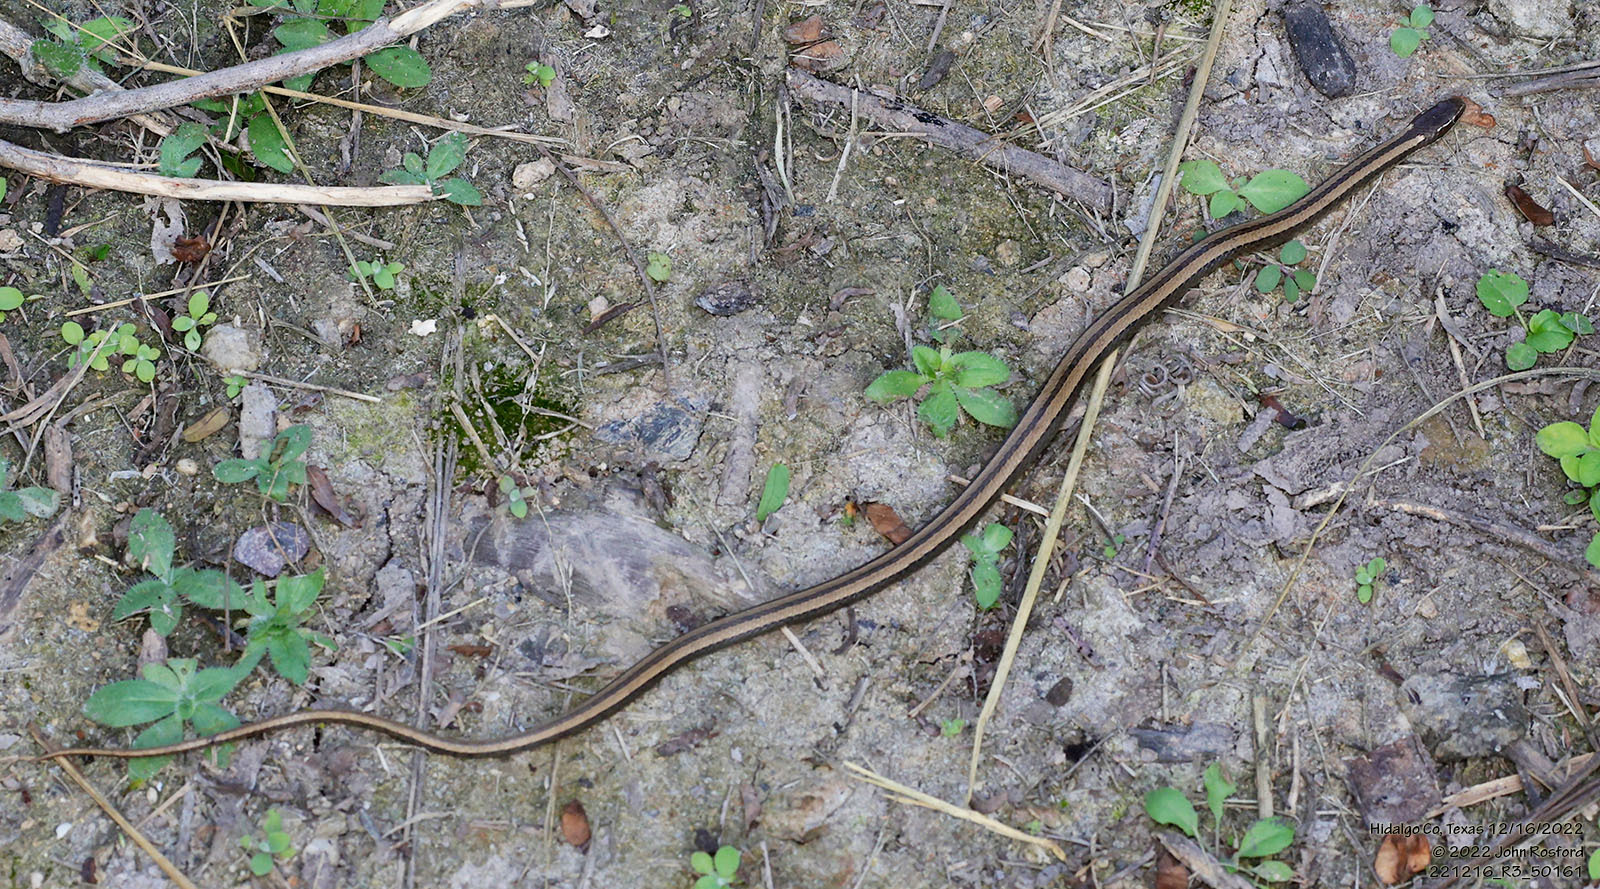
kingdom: Animalia
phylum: Chordata
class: Squamata
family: Colubridae
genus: Coniophanes
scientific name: Coniophanes imperialis
